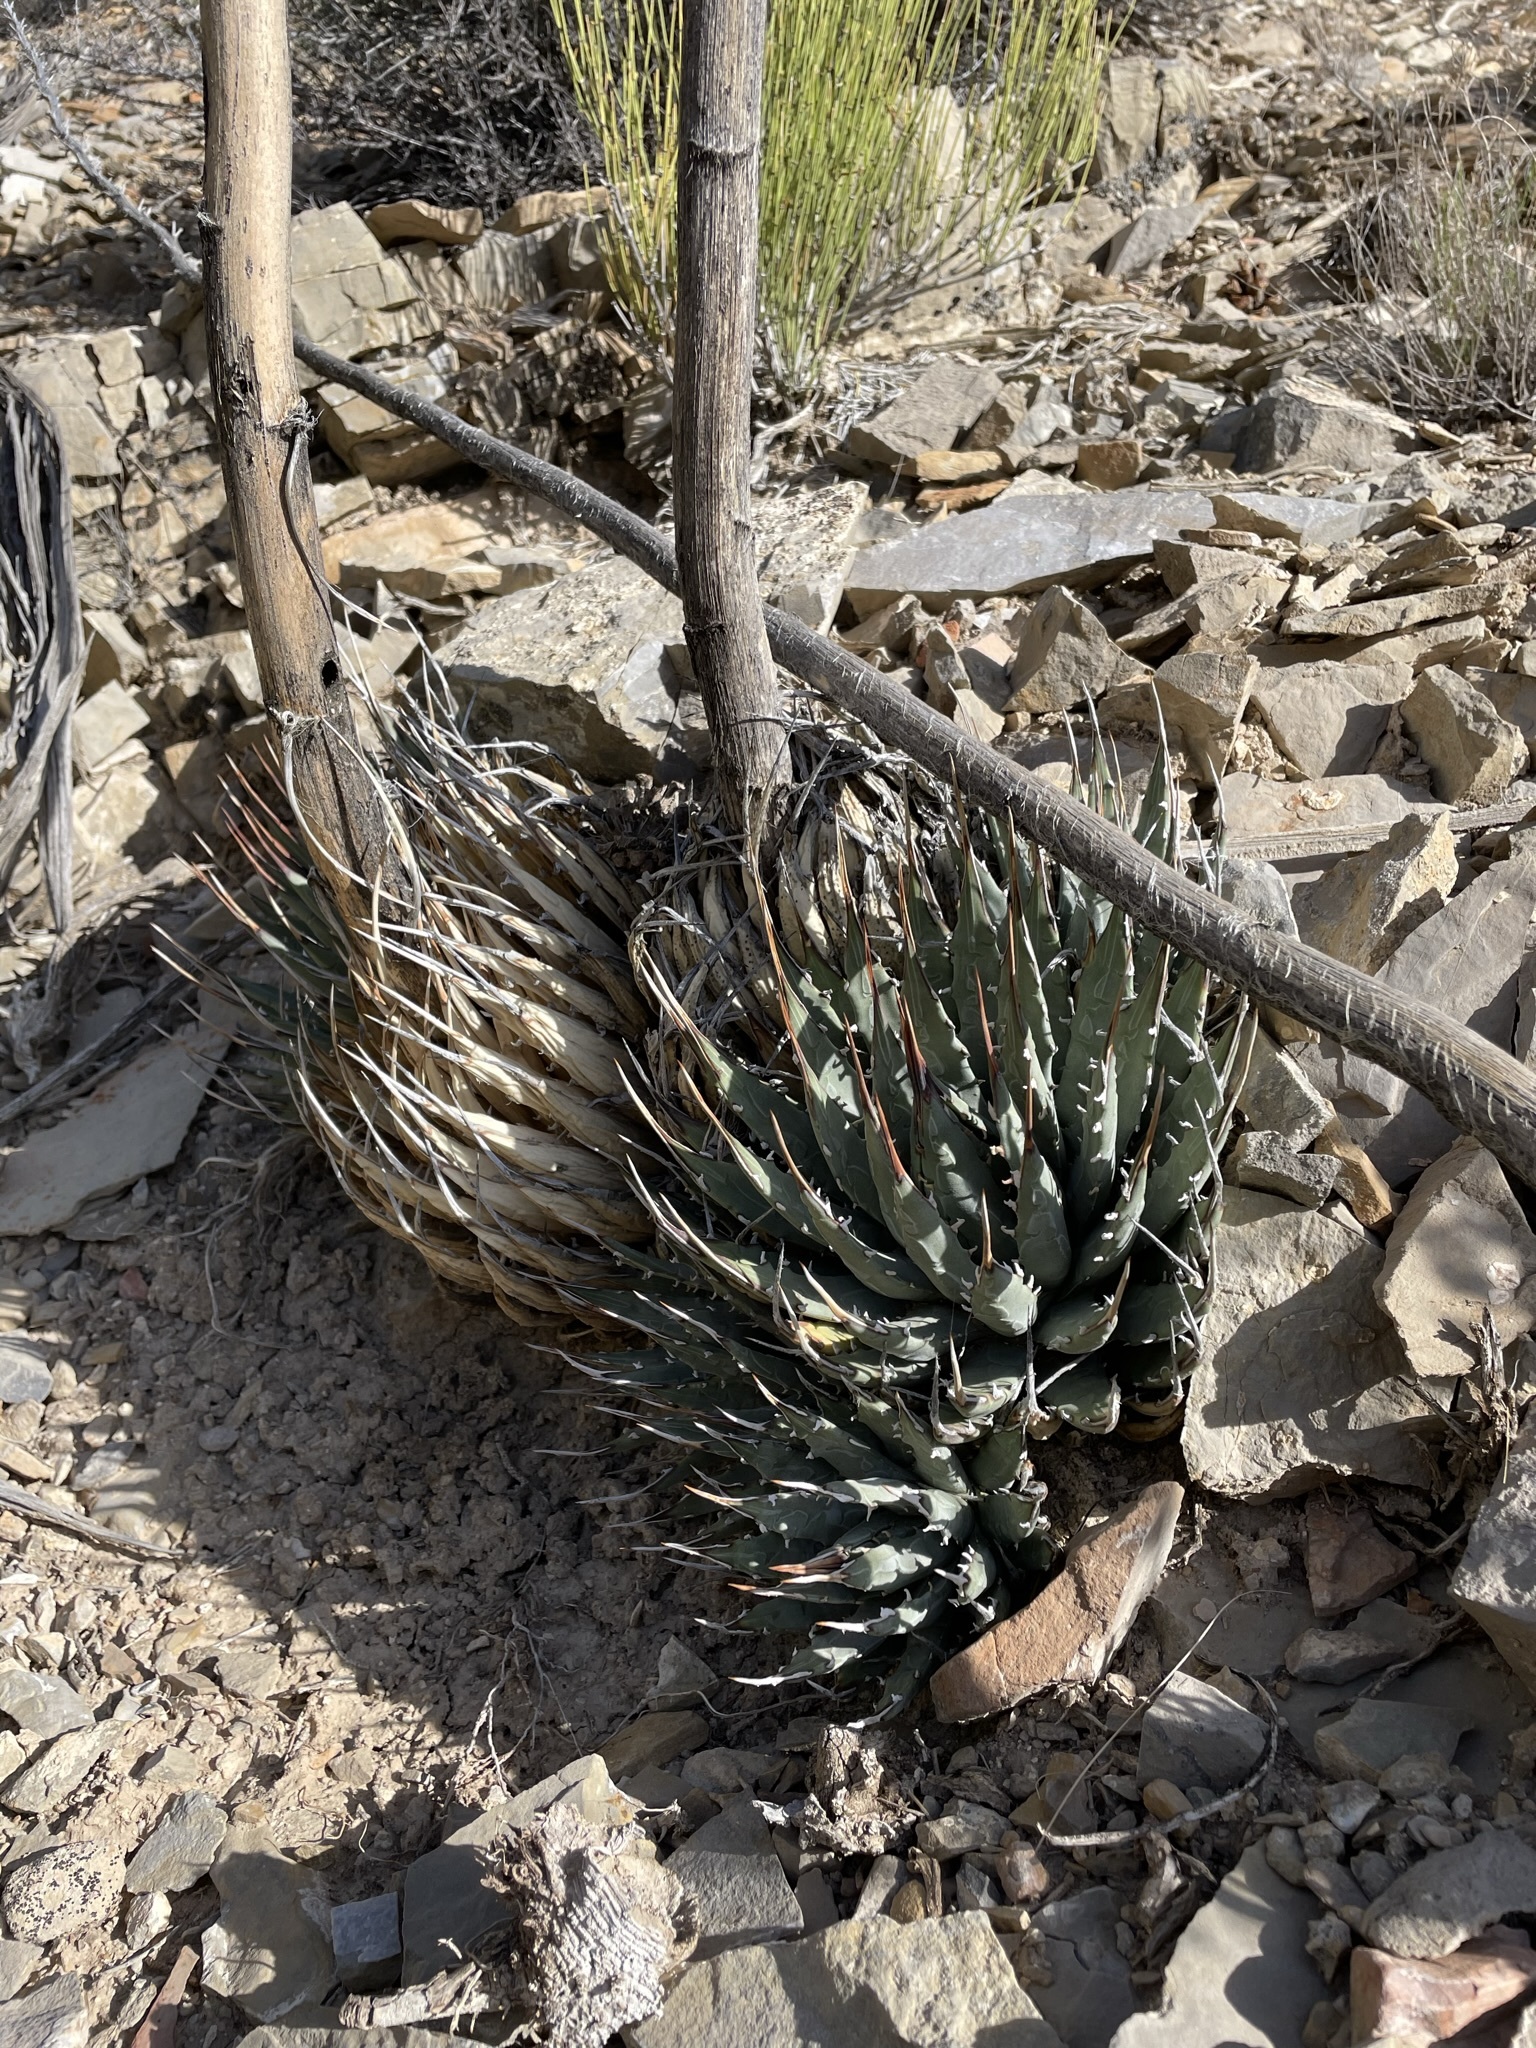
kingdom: Plantae
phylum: Tracheophyta
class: Liliopsida
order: Asparagales
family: Asparagaceae
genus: Agave
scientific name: Agave utahensis
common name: Utah agave
